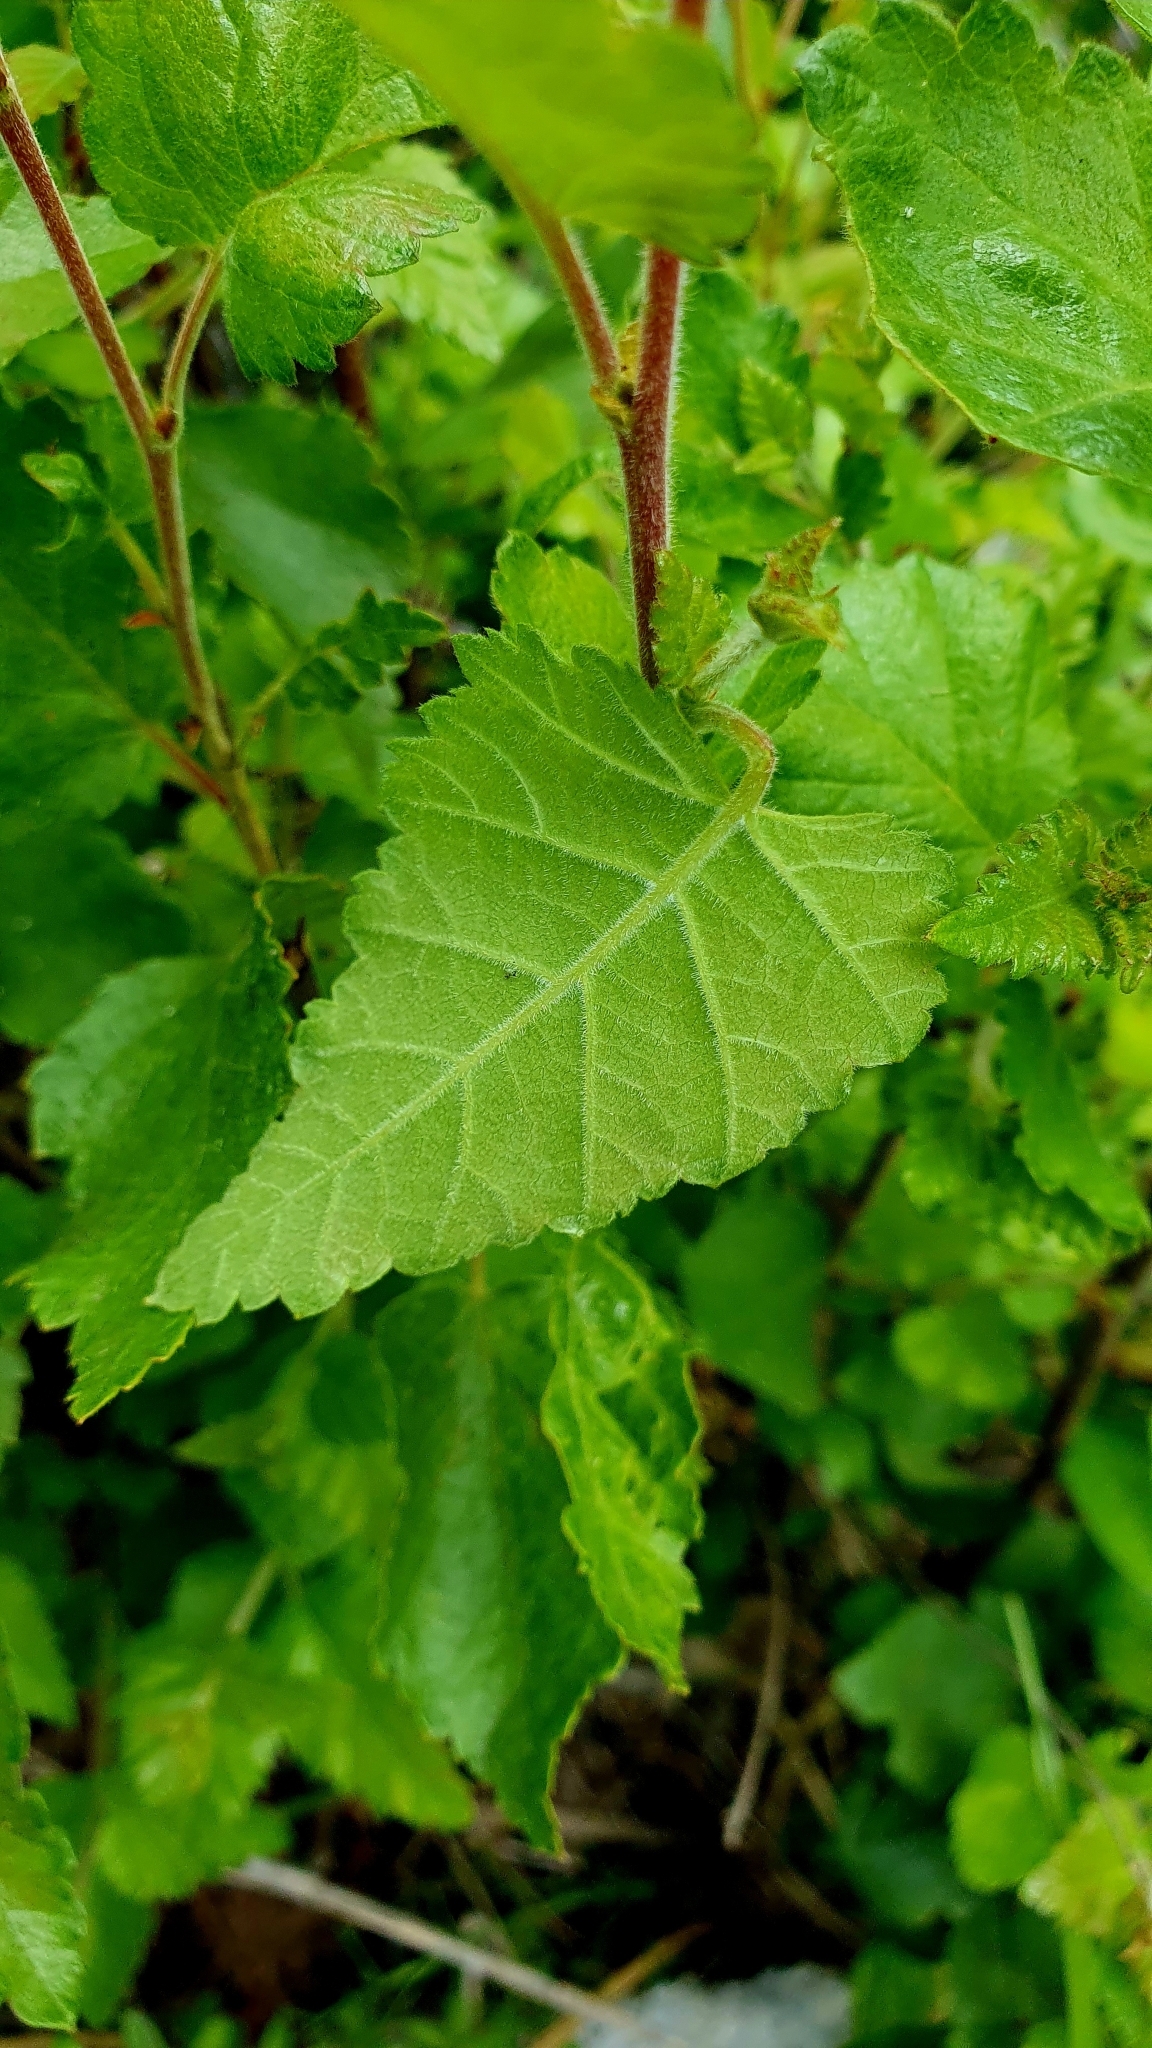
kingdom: Plantae
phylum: Tracheophyta
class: Magnoliopsida
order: Fagales
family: Betulaceae
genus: Betula
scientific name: Betula pubescens
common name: Downy birch
